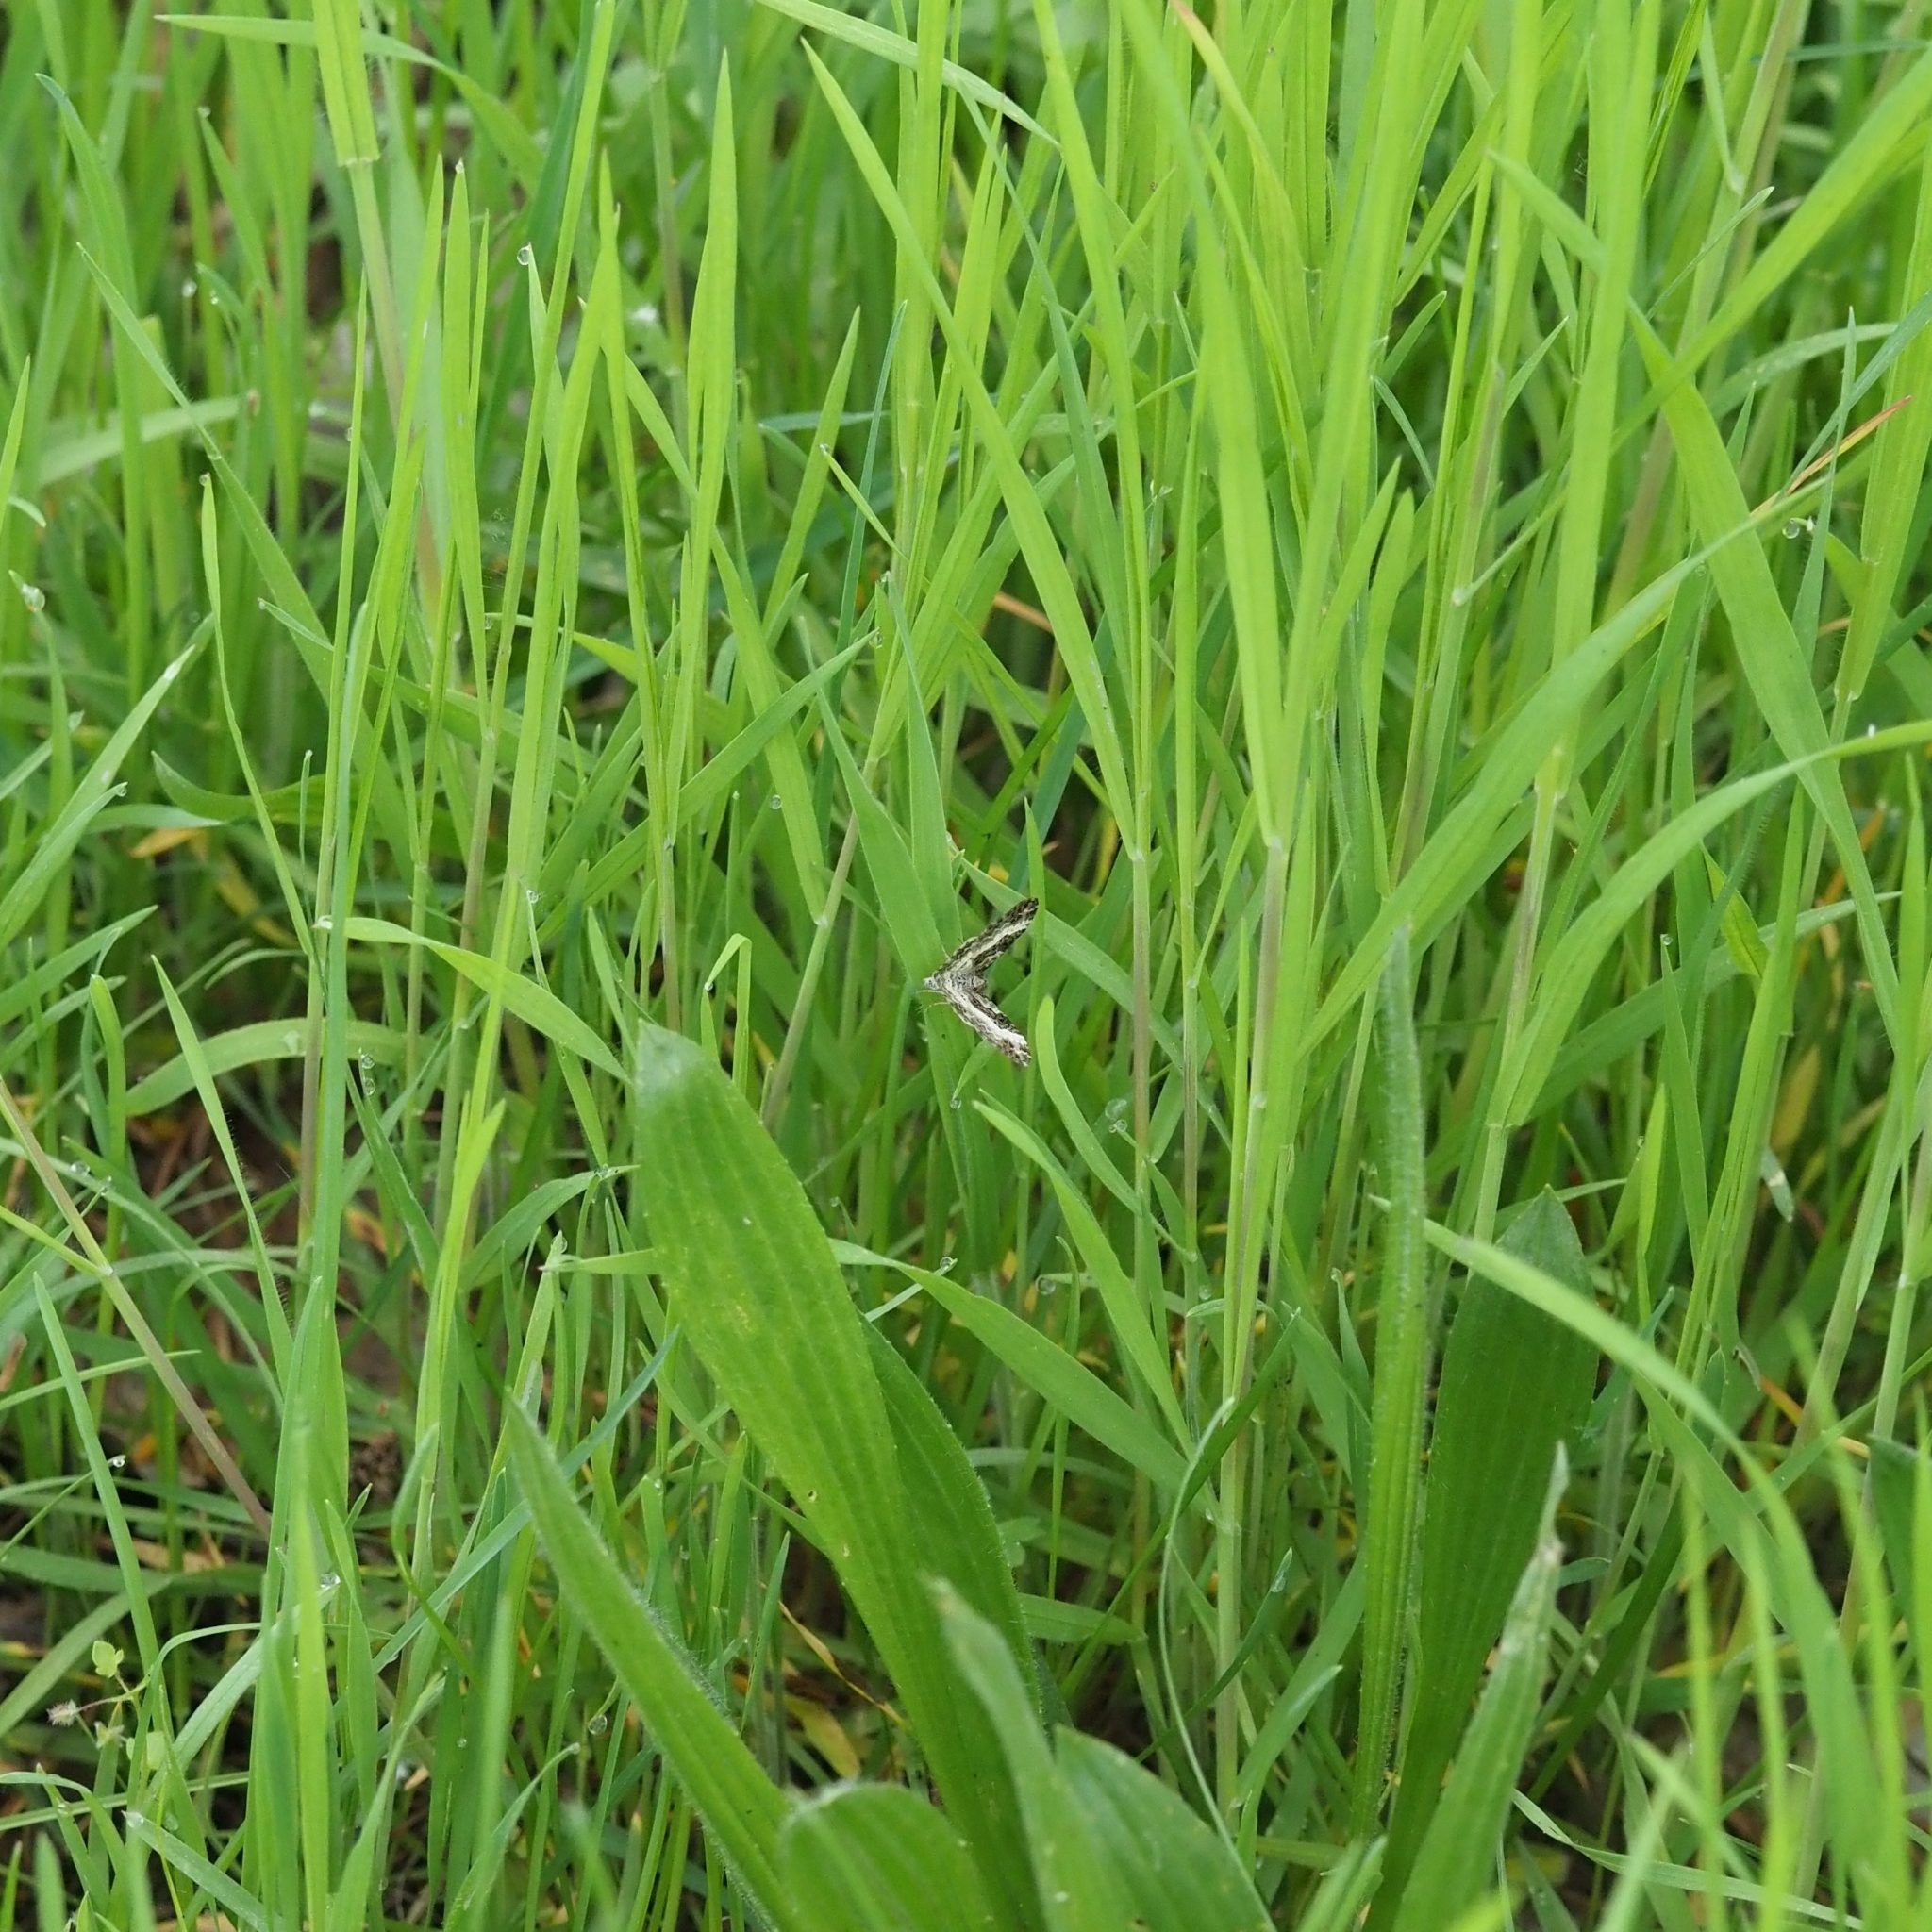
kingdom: Animalia
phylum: Arthropoda
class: Insecta
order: Lepidoptera
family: Geometridae
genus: Epirrhoe
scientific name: Epirrhoe alternata
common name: Common carpet
